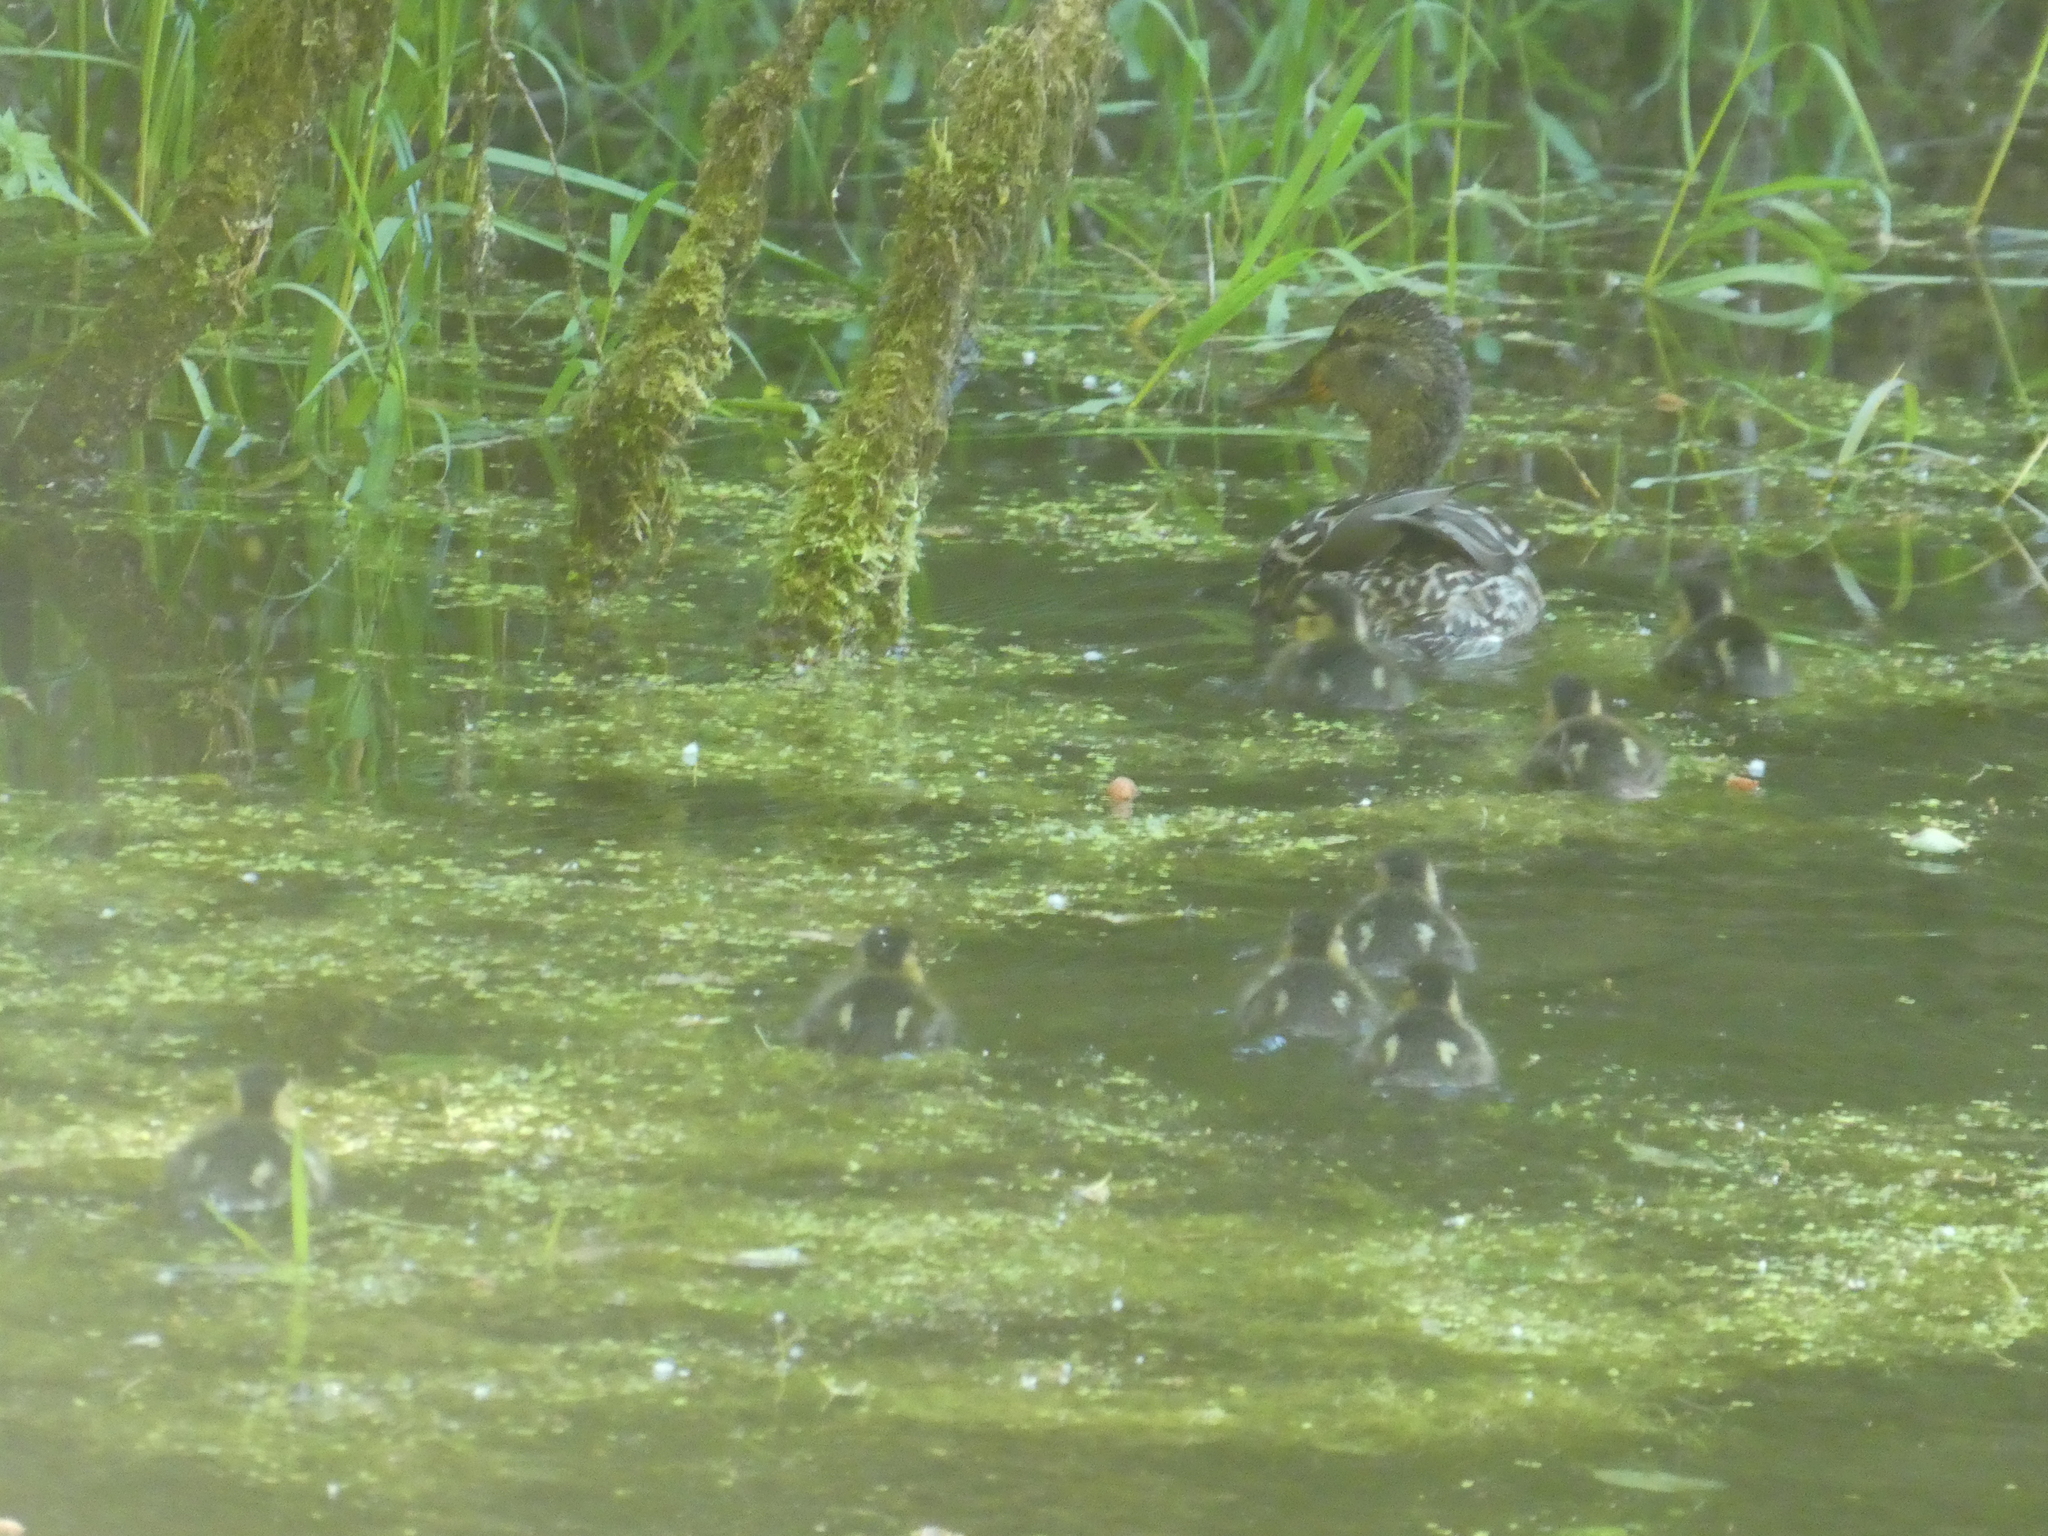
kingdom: Animalia
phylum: Chordata
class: Aves
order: Anseriformes
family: Anatidae
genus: Anas
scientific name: Anas platyrhynchos
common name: Mallard
